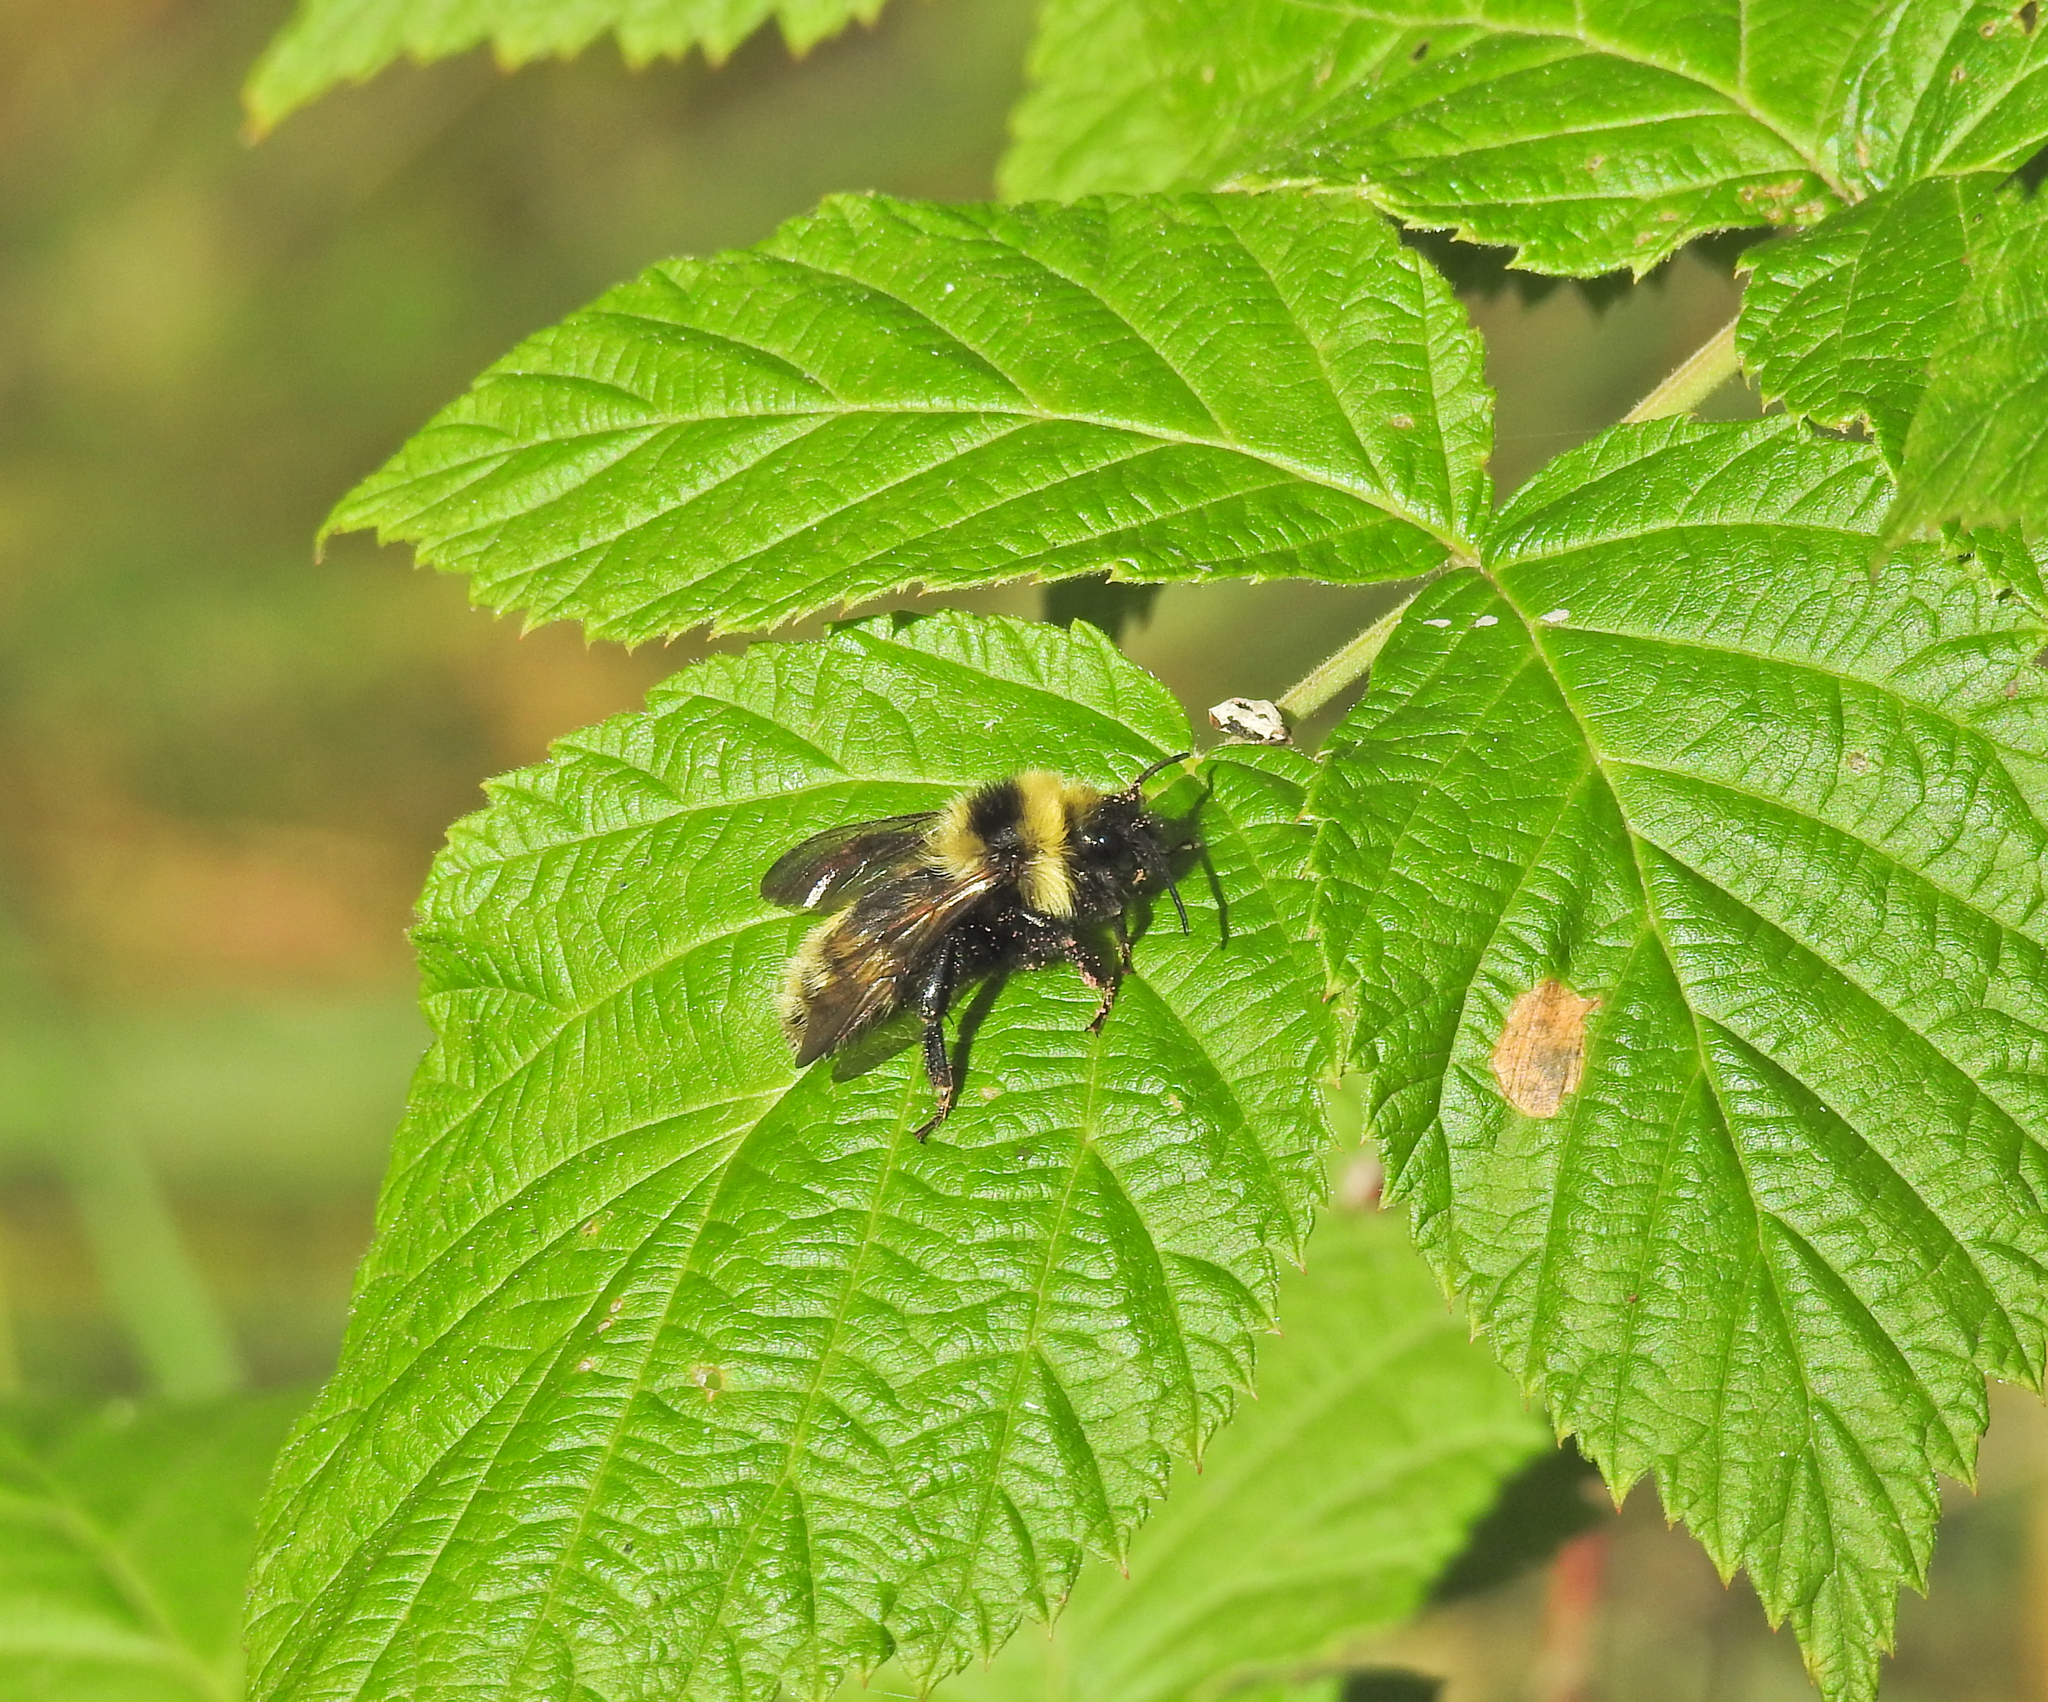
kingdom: Animalia
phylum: Arthropoda
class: Insecta
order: Hymenoptera
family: Apidae
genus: Bombus
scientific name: Bombus campestris
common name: Field cuckoo-bee
